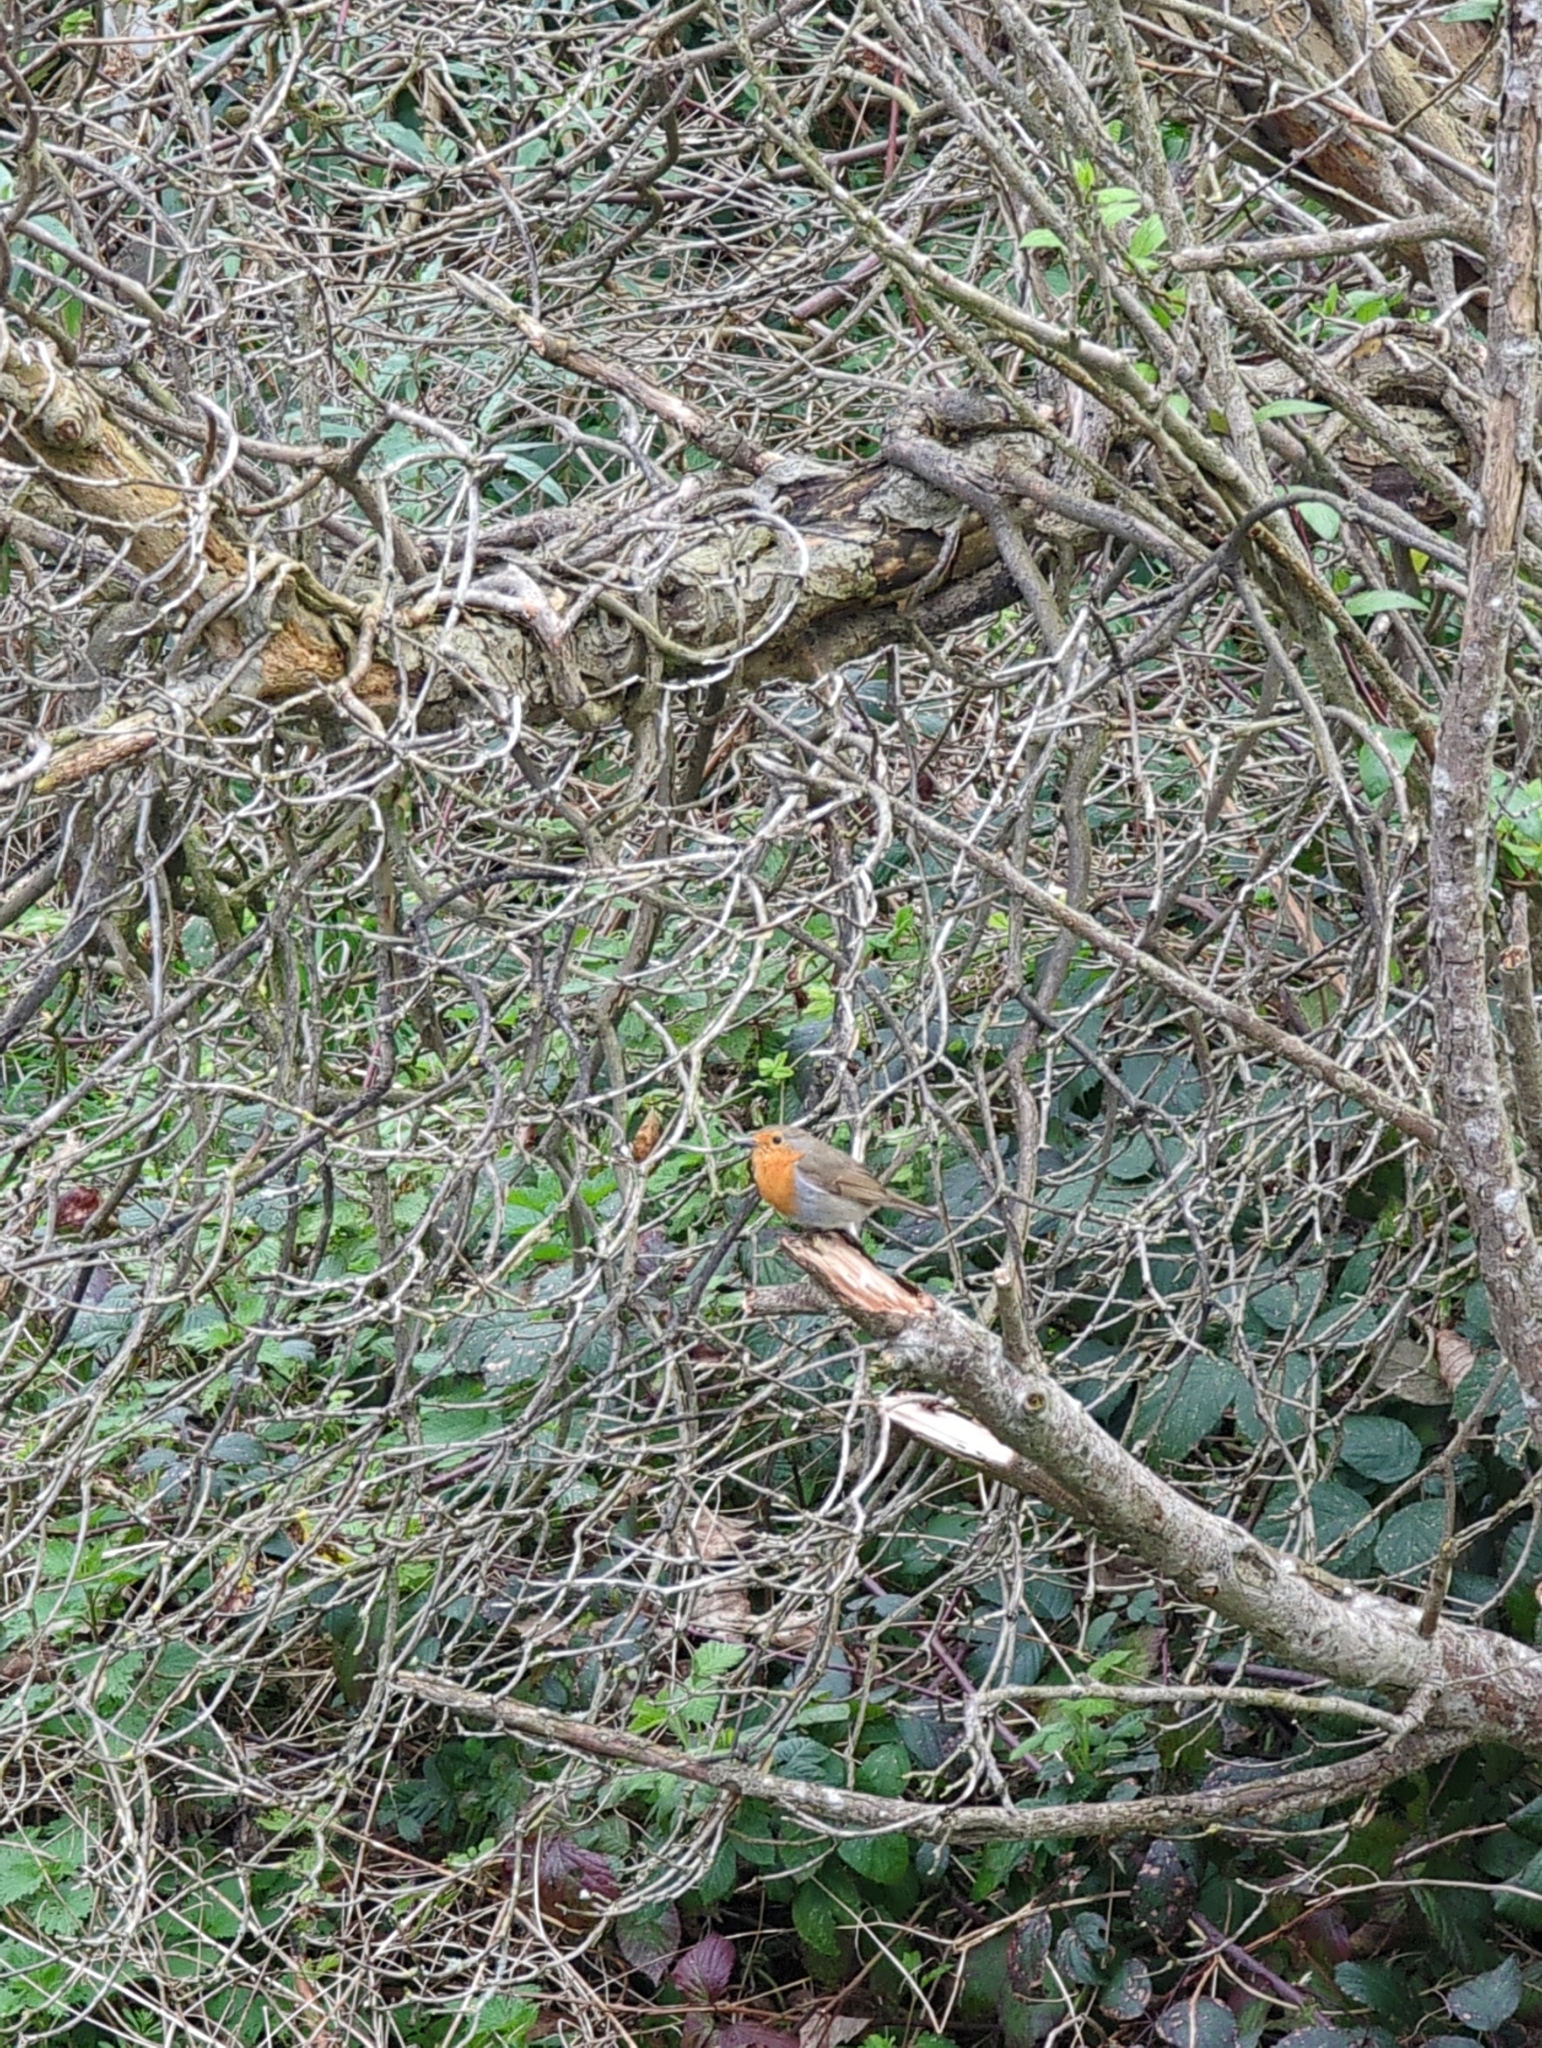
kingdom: Animalia
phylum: Chordata
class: Aves
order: Passeriformes
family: Muscicapidae
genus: Erithacus
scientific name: Erithacus rubecula
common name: European robin
